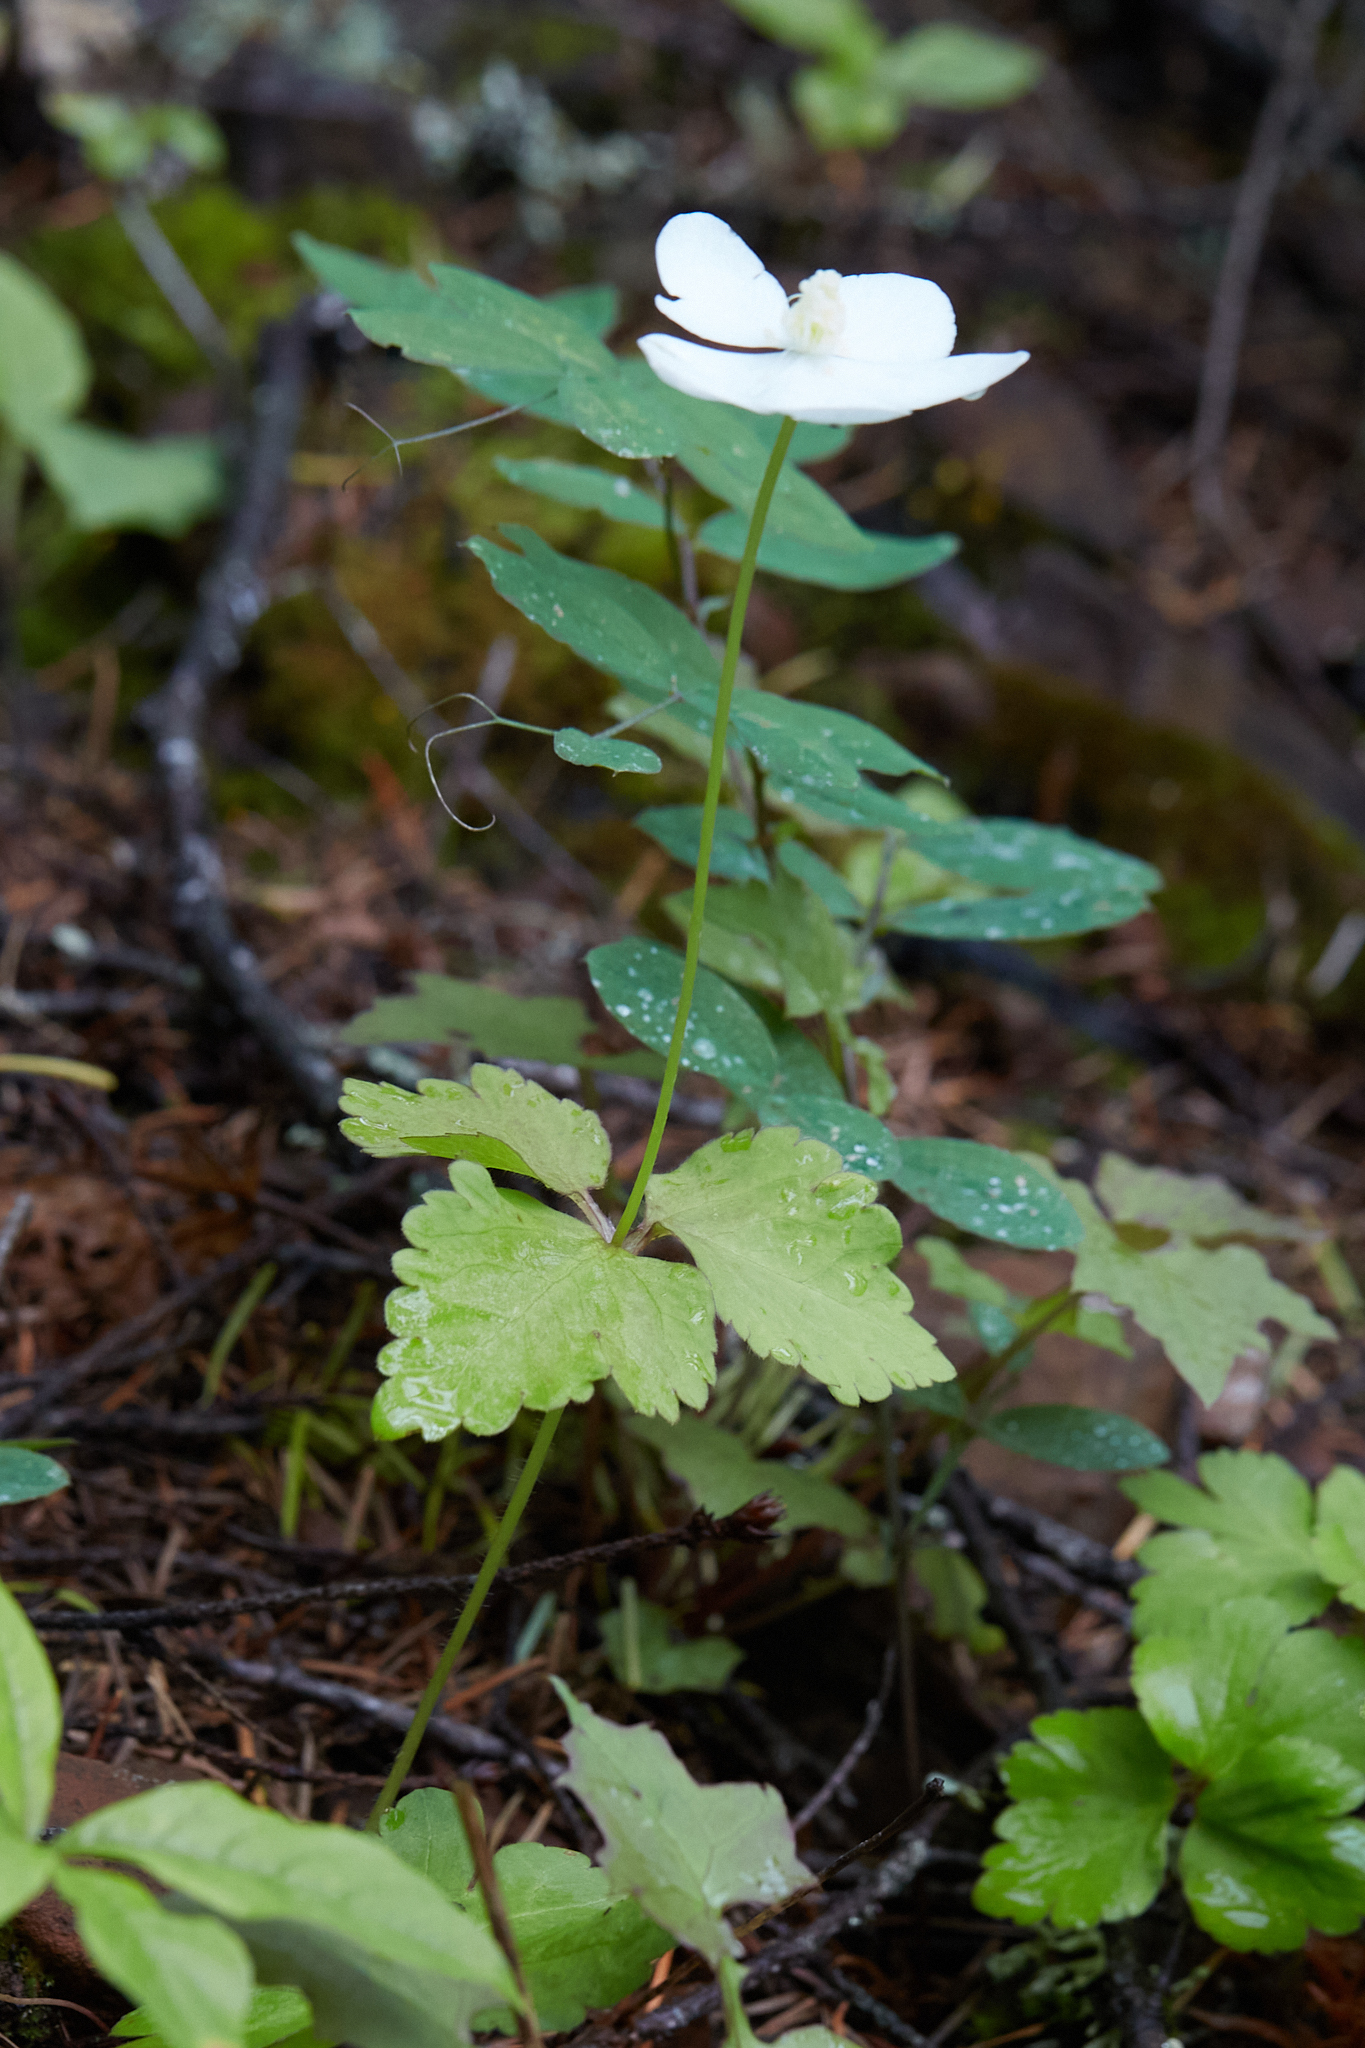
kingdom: Plantae
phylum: Tracheophyta
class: Magnoliopsida
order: Ranunculales
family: Ranunculaceae
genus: Anemonastrum
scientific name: Anemonastrum deltoideum
